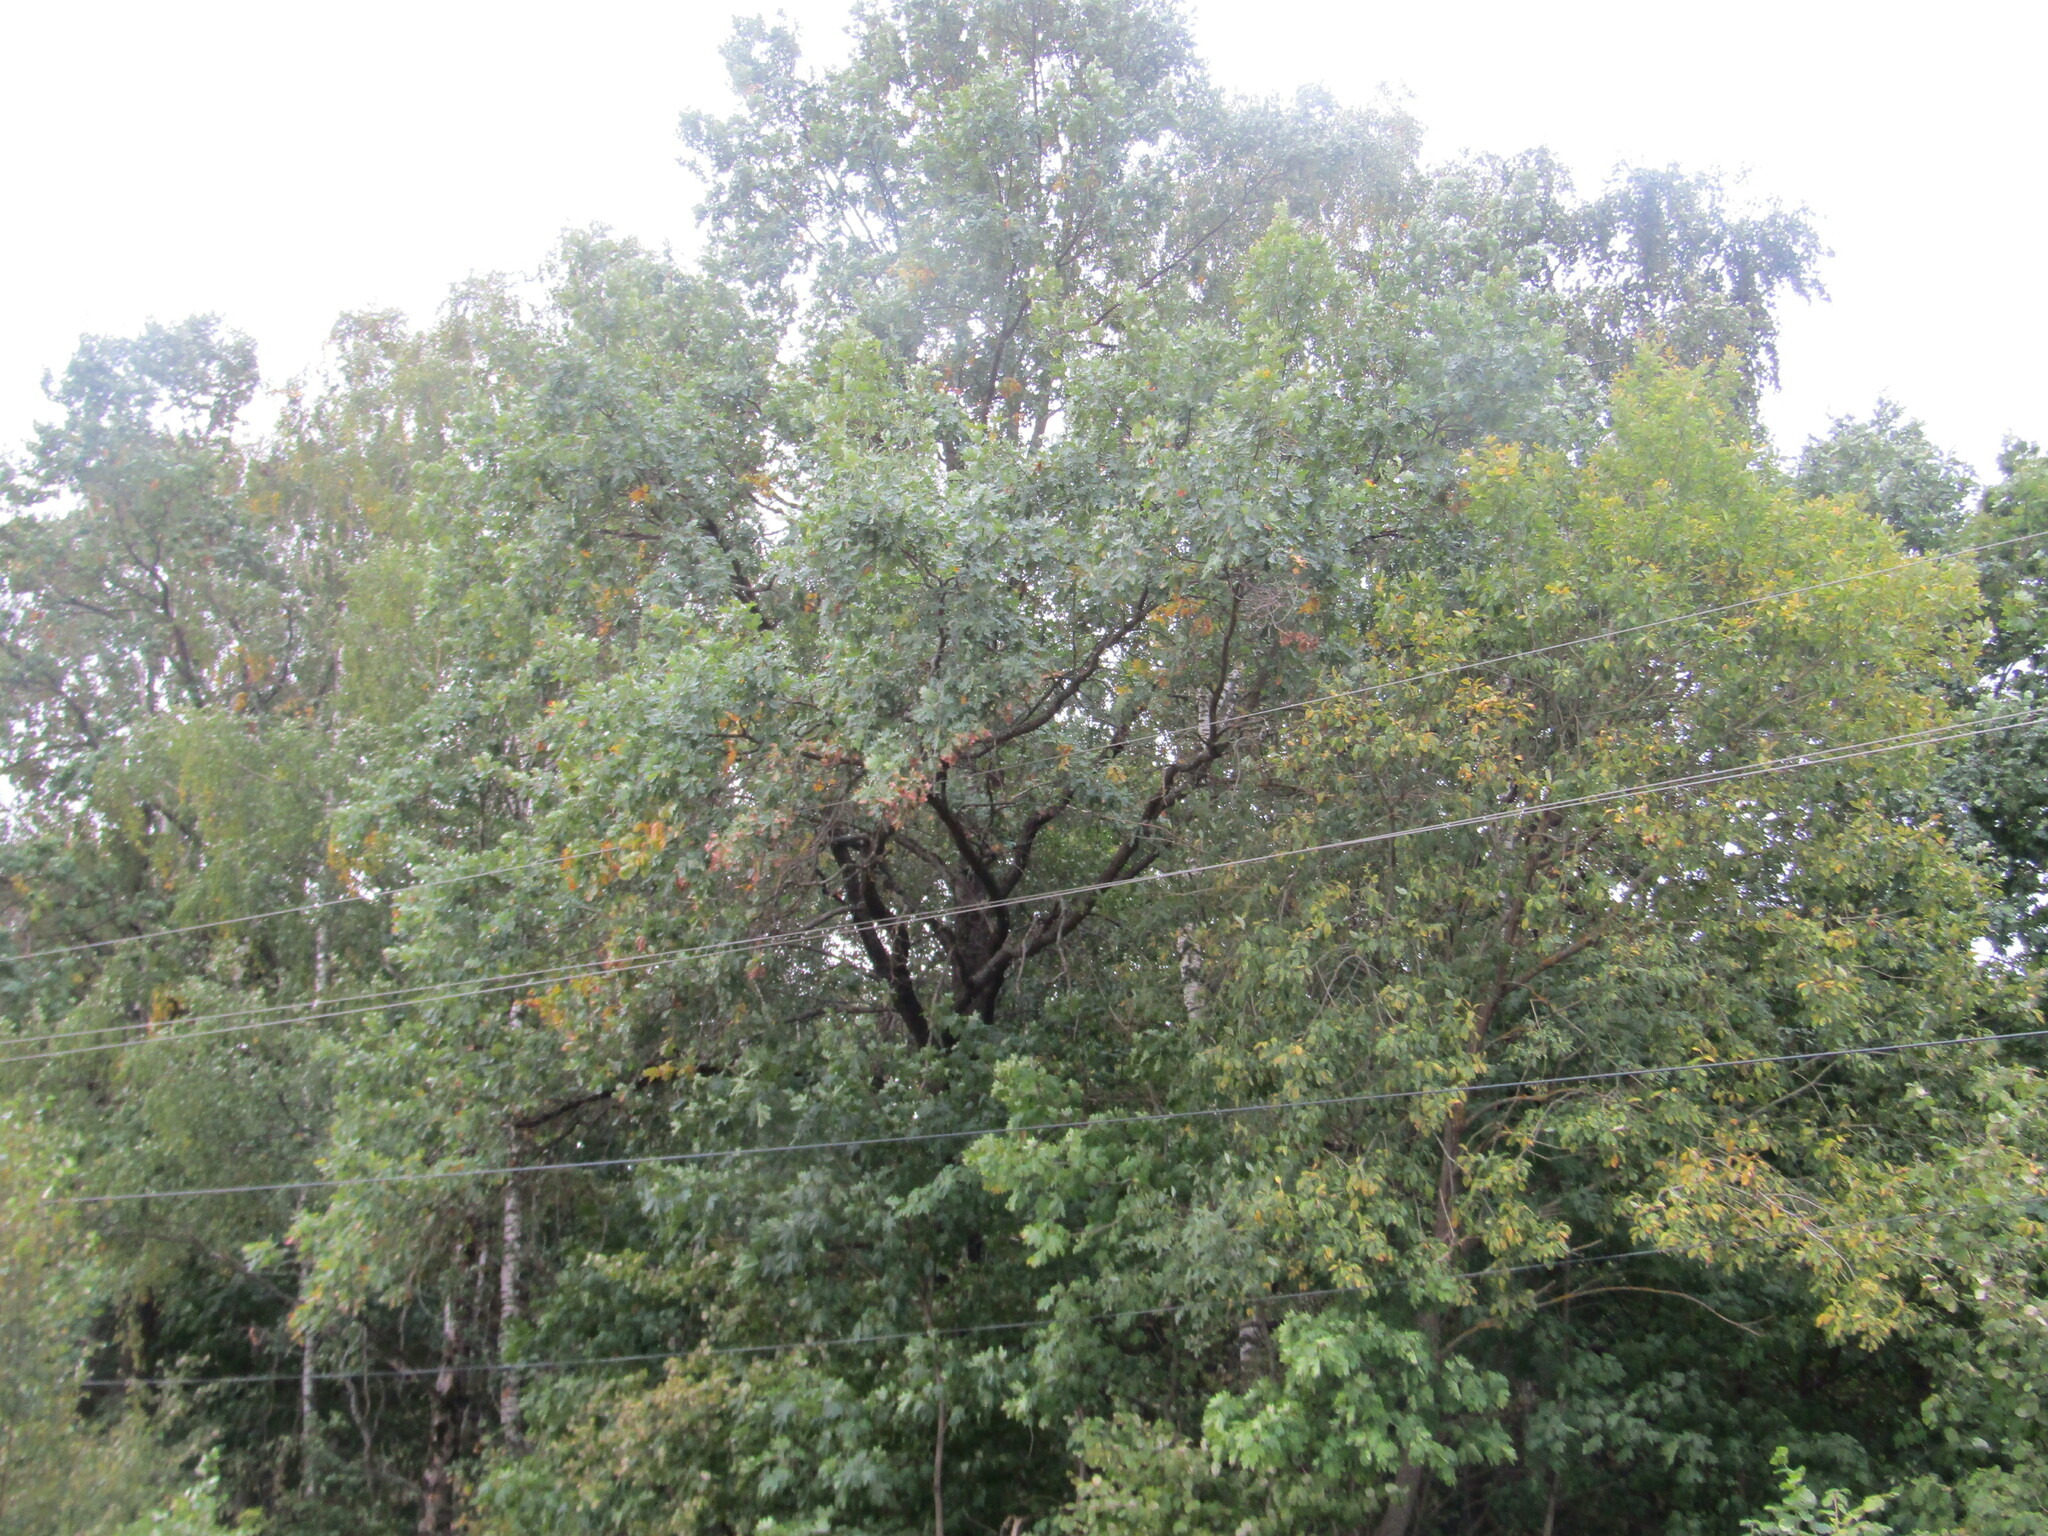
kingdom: Plantae
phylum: Tracheophyta
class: Magnoliopsida
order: Fagales
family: Fagaceae
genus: Quercus
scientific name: Quercus robur
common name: Pedunculate oak
